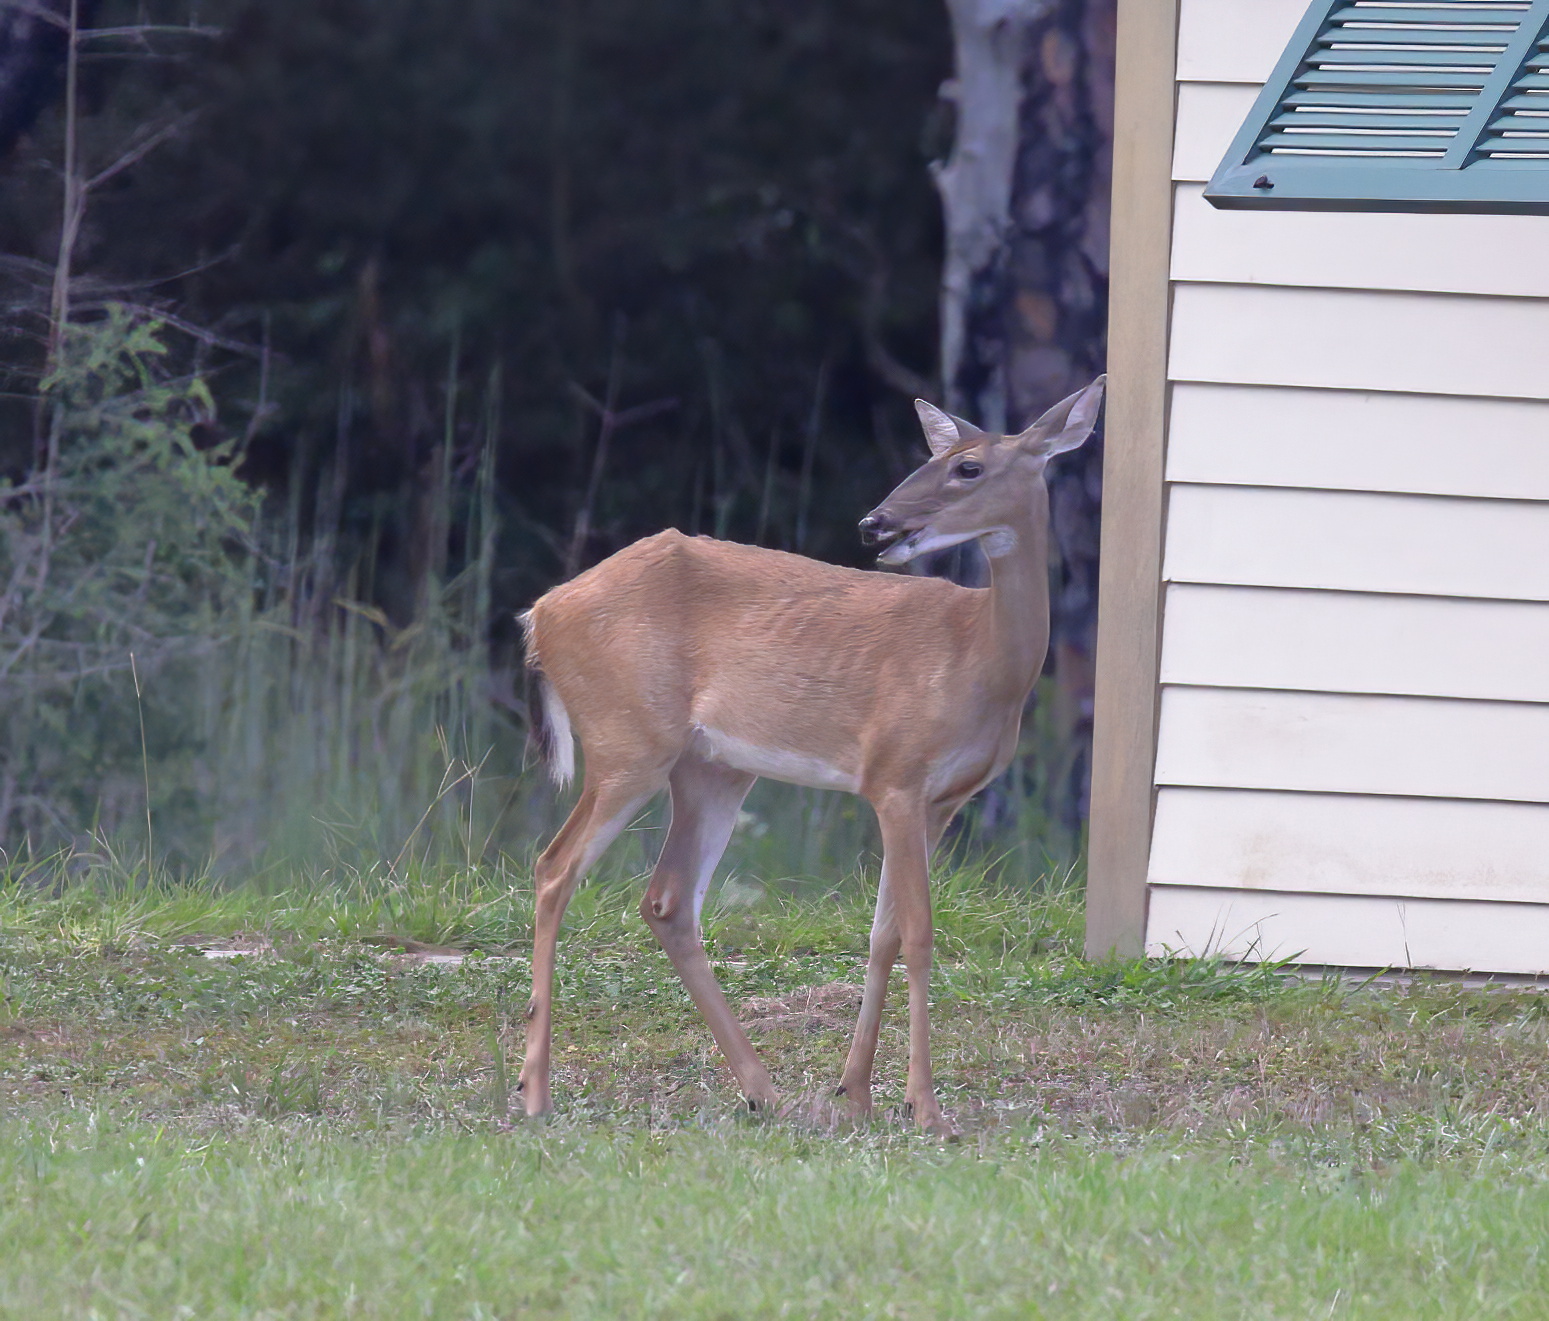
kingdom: Animalia
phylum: Chordata
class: Mammalia
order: Artiodactyla
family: Cervidae
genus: Odocoileus
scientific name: Odocoileus virginianus
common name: White-tailed deer
